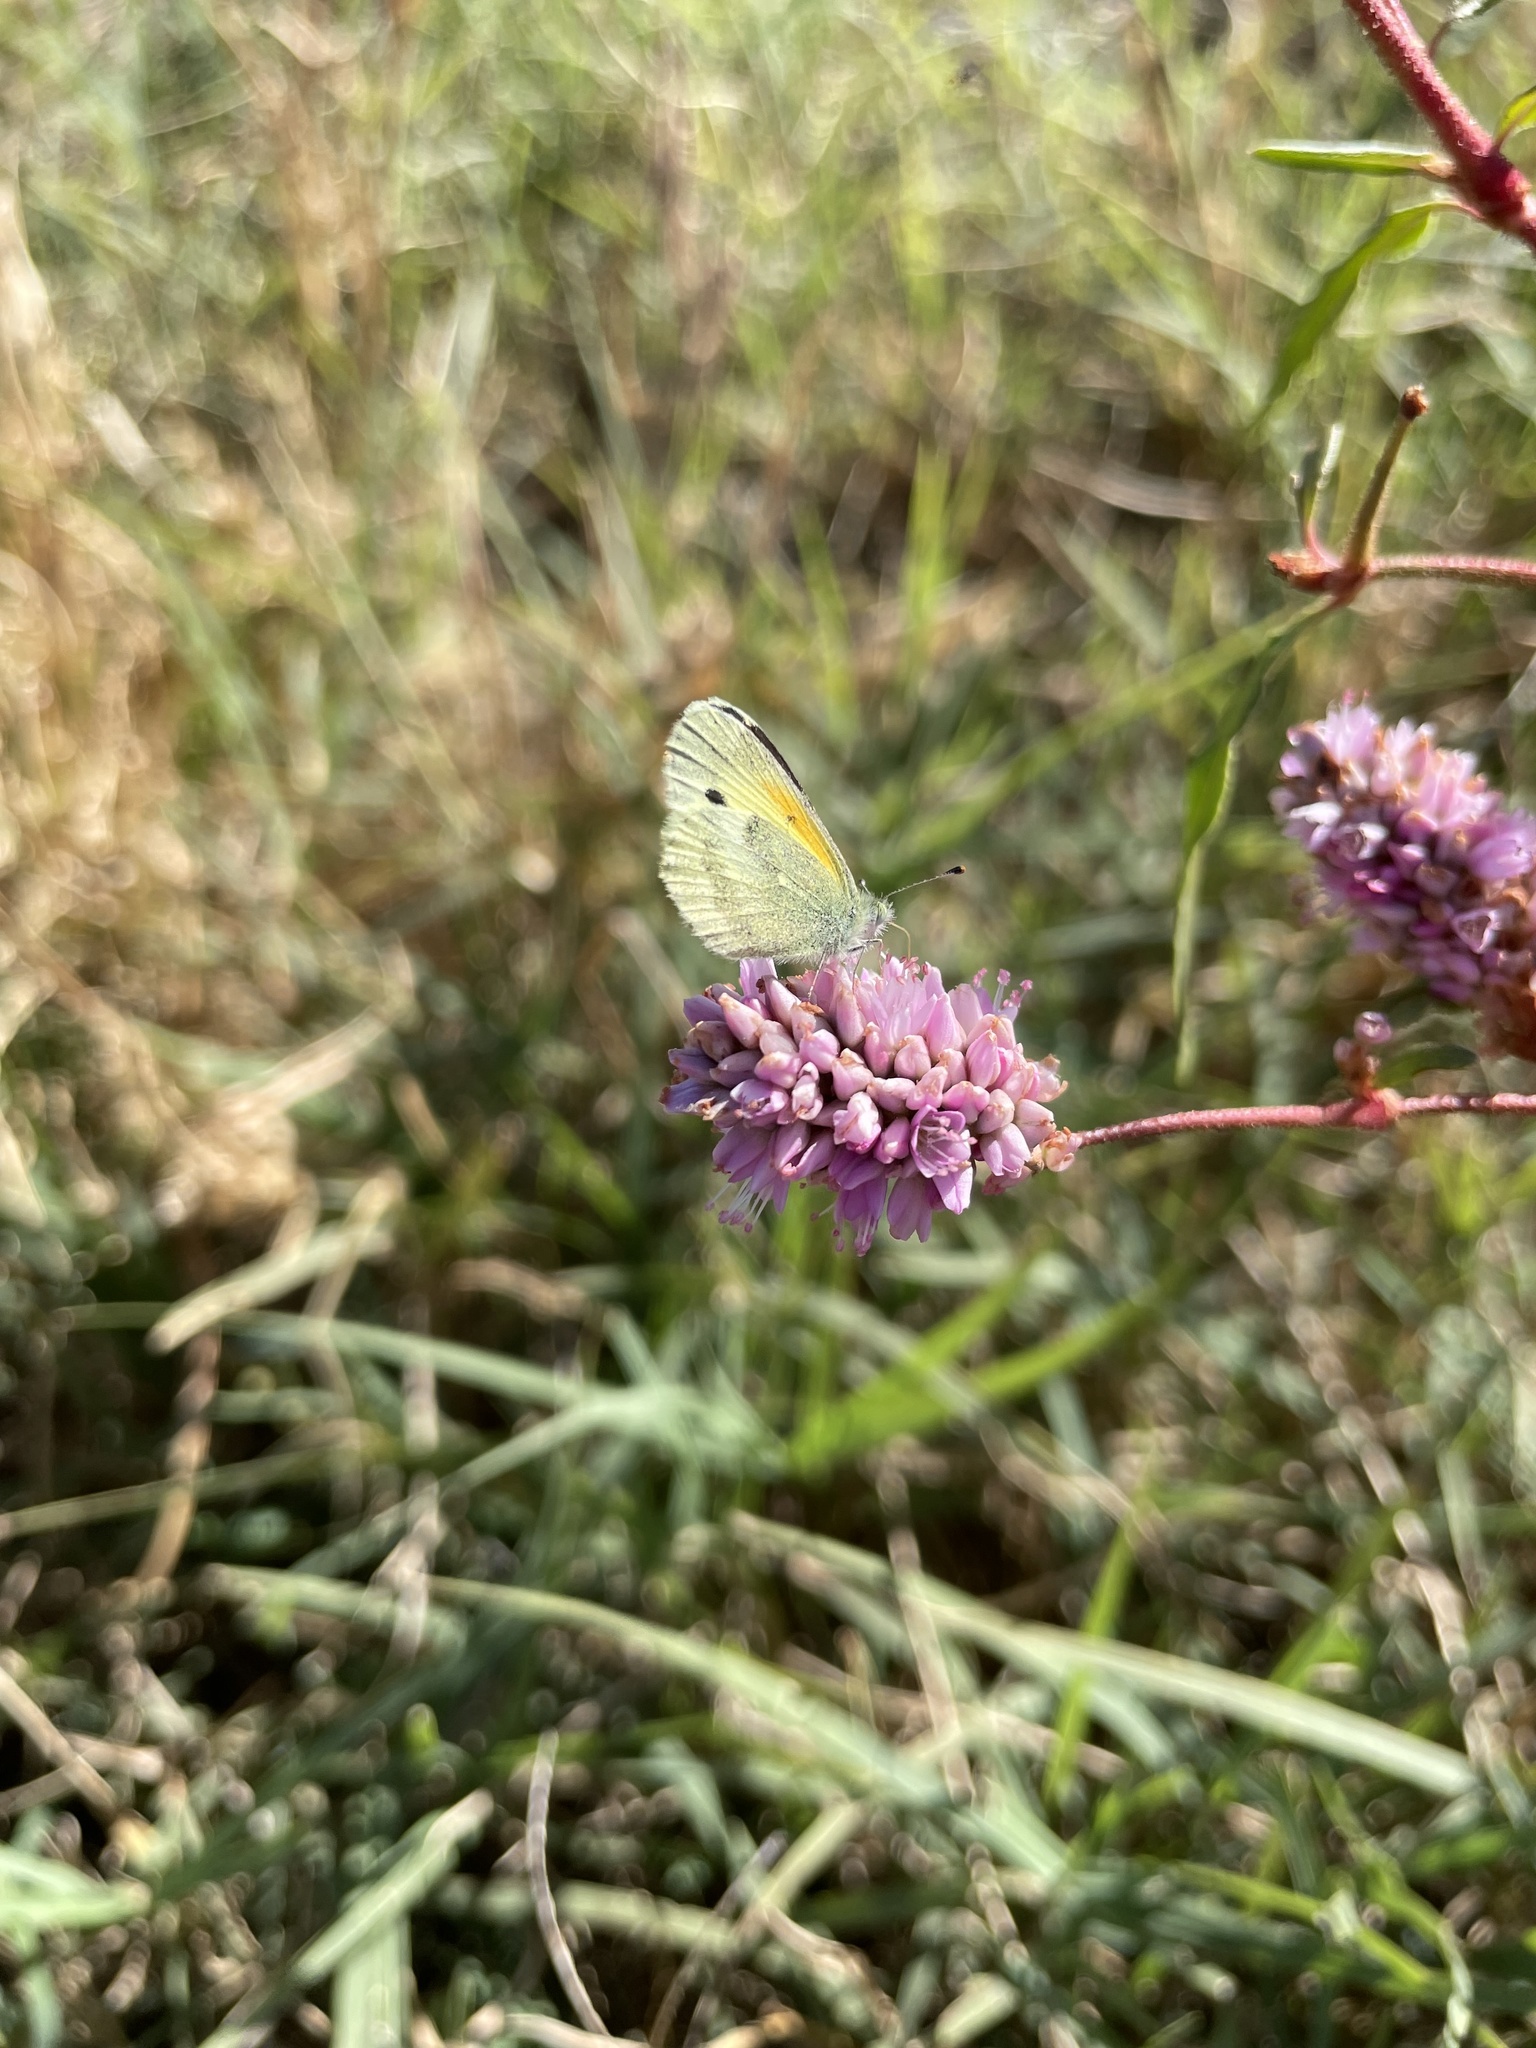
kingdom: Animalia
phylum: Arthropoda
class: Insecta
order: Lepidoptera
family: Pieridae
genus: Nathalis
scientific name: Nathalis iole
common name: Dainty sulphur
